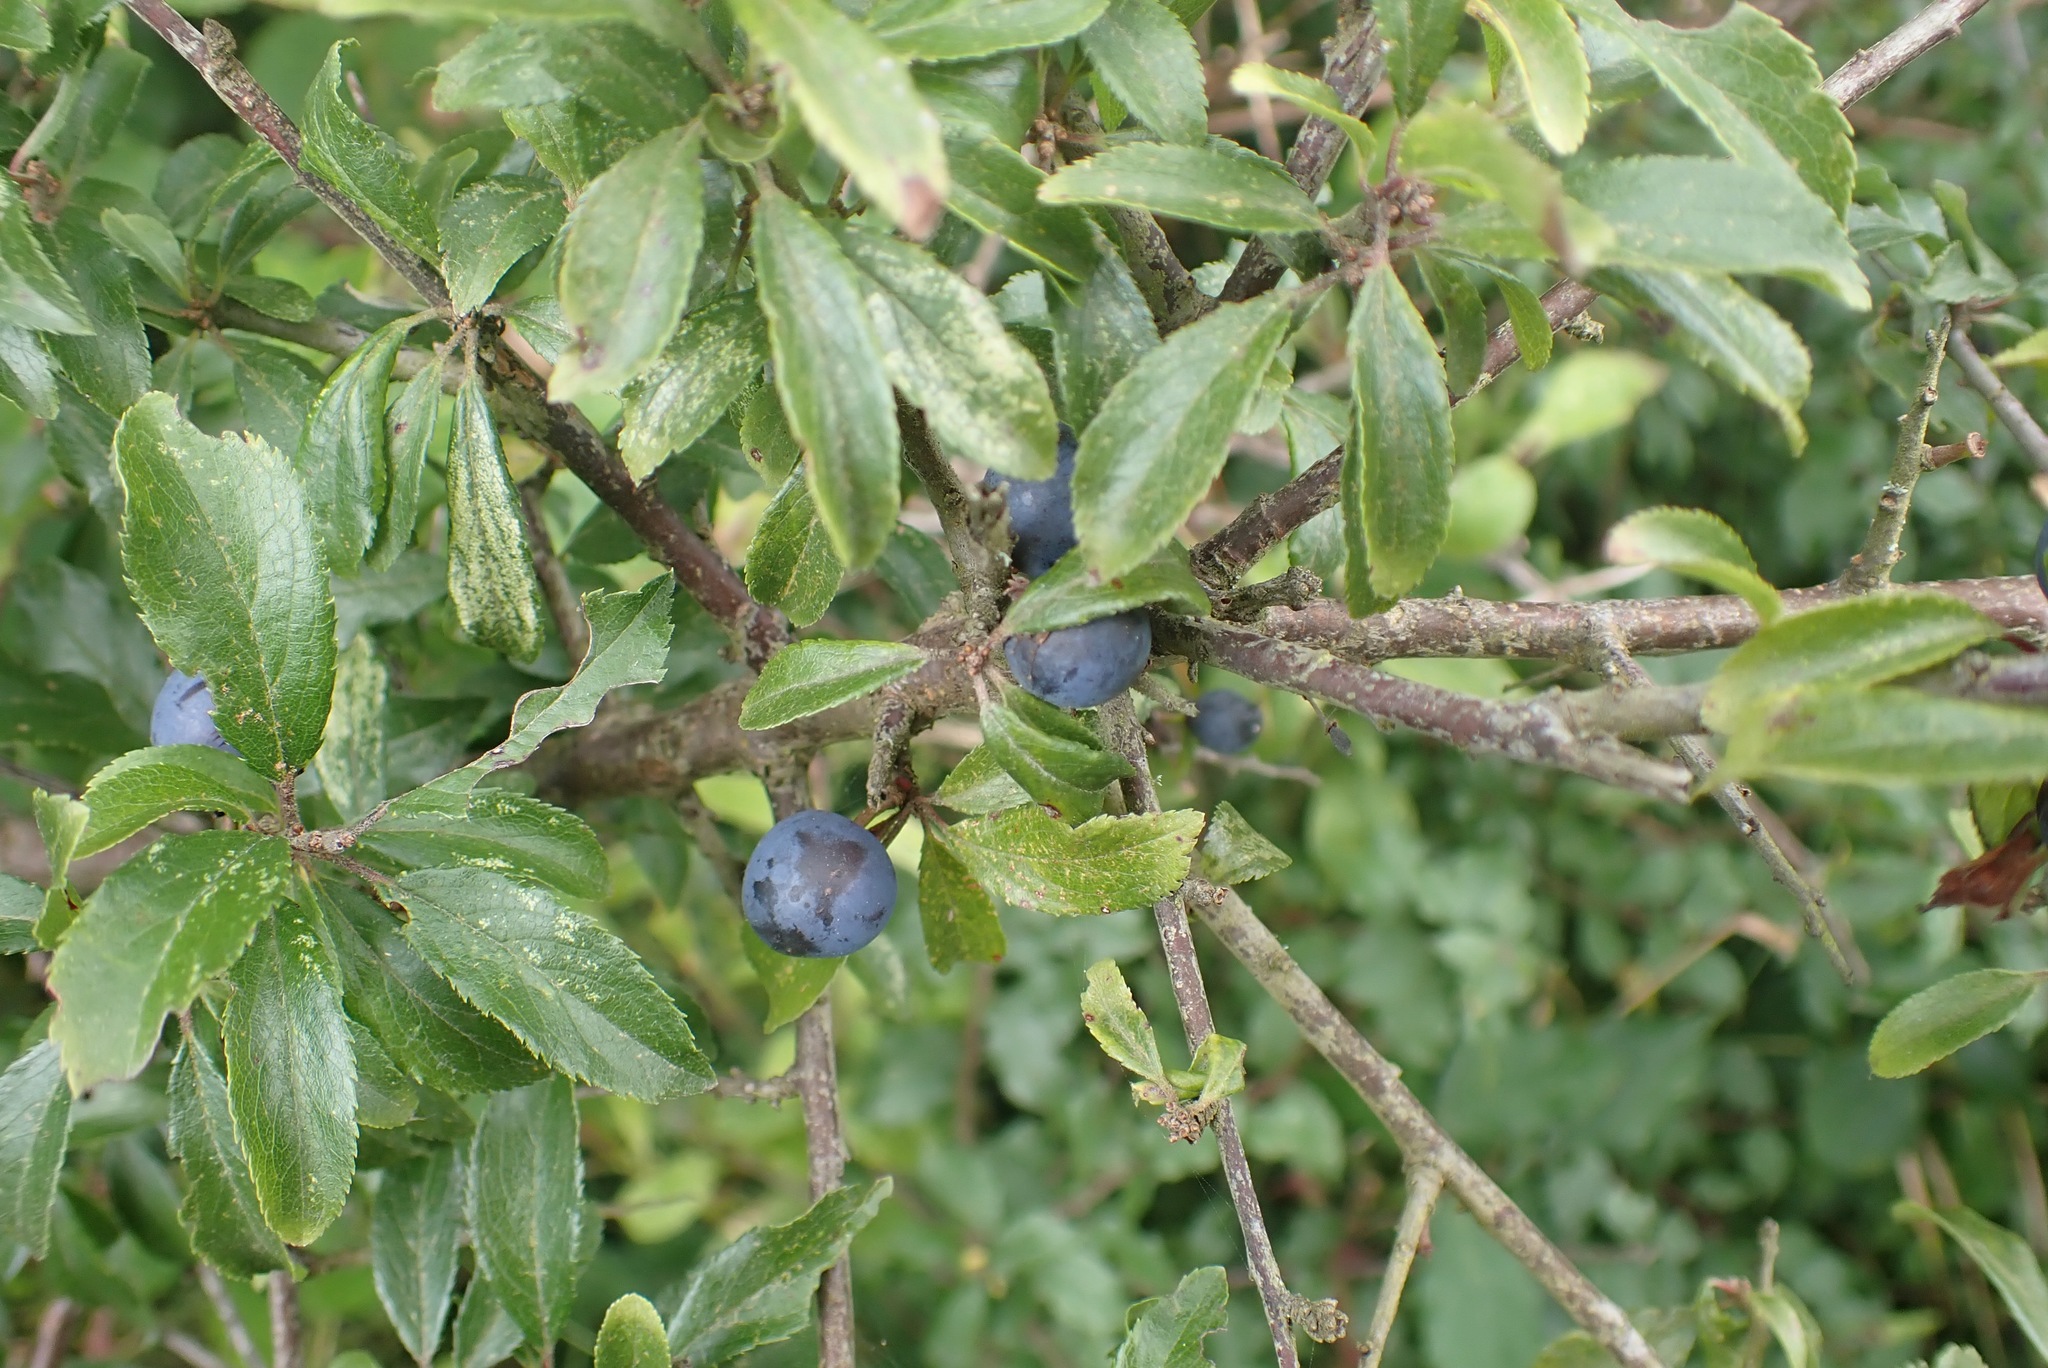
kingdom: Plantae
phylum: Tracheophyta
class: Magnoliopsida
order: Rosales
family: Rosaceae
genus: Prunus
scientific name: Prunus spinosa
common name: Blackthorn
